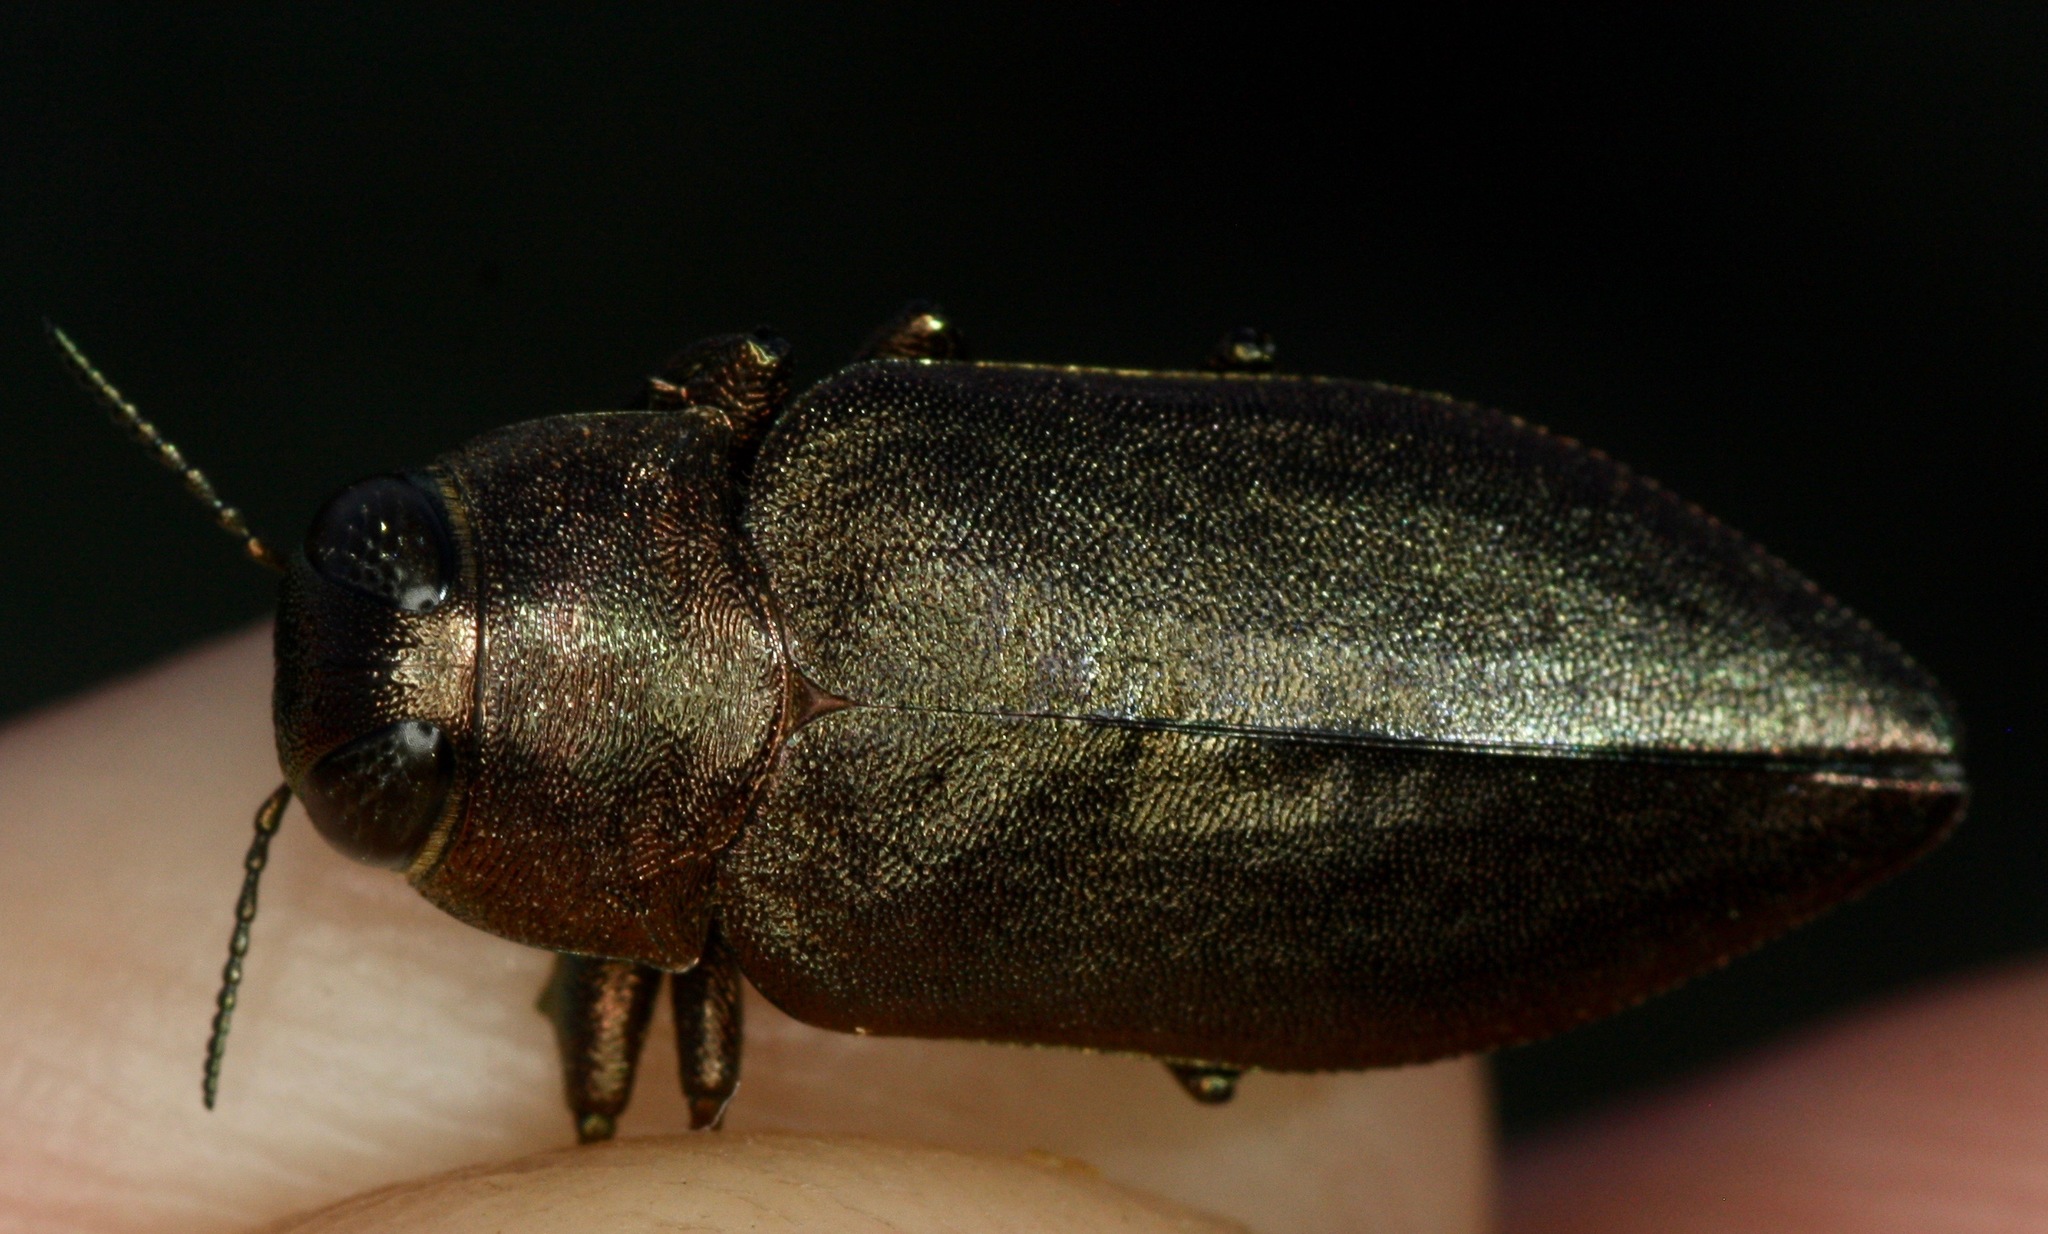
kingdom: Animalia
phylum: Arthropoda
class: Insecta
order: Coleoptera
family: Buprestidae
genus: Actenodes
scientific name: Actenodes mendax
